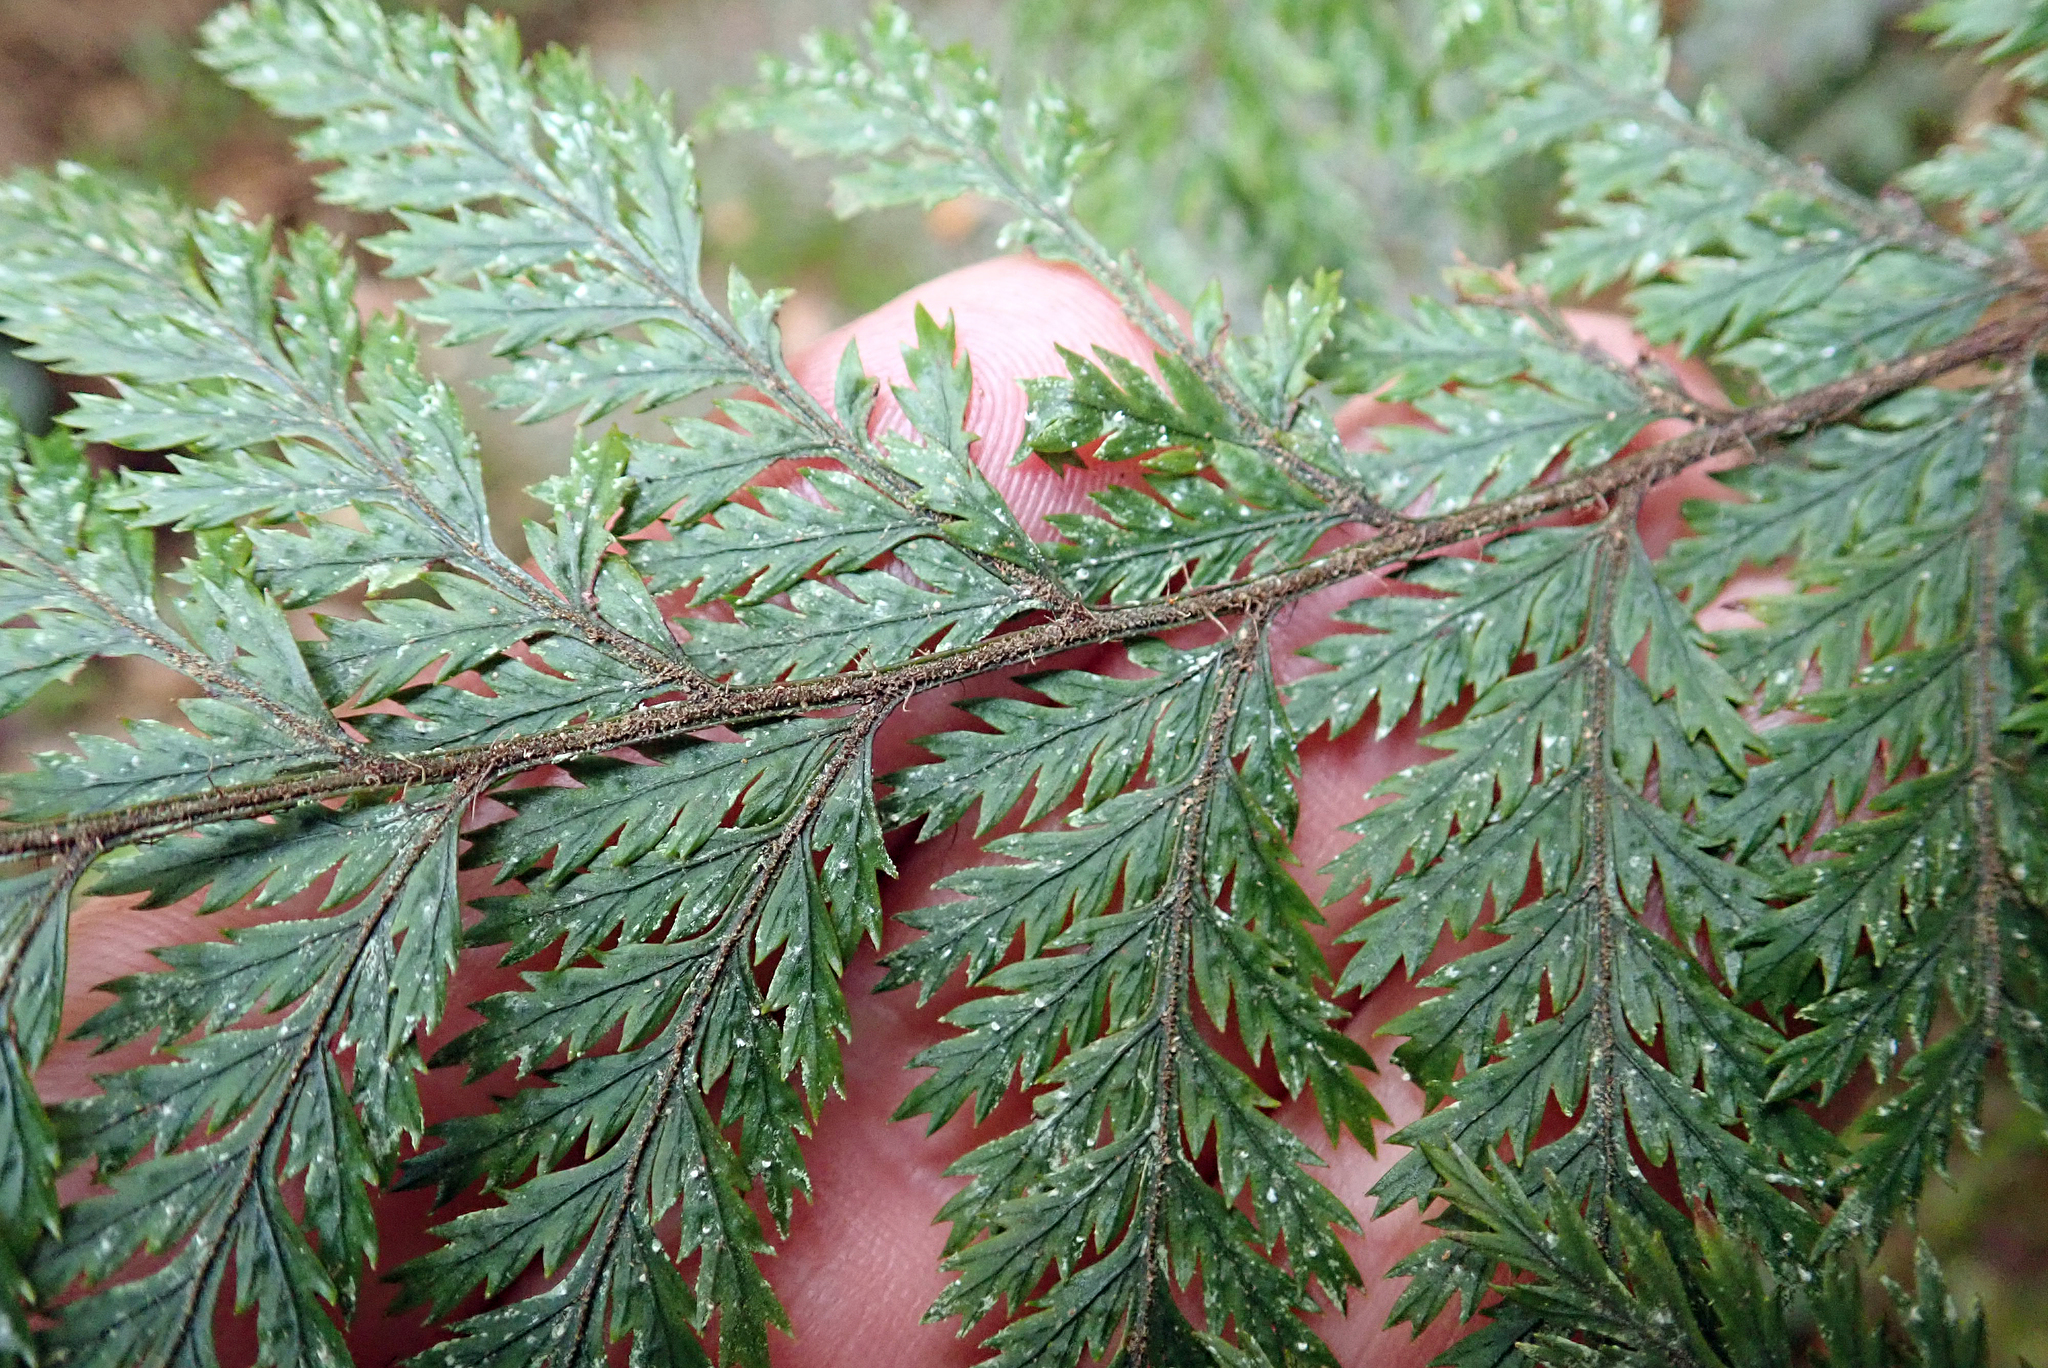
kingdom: Plantae
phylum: Tracheophyta
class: Polypodiopsida
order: Polypodiales
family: Dryopteridaceae
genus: Lastreopsis
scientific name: Lastreopsis hispida
